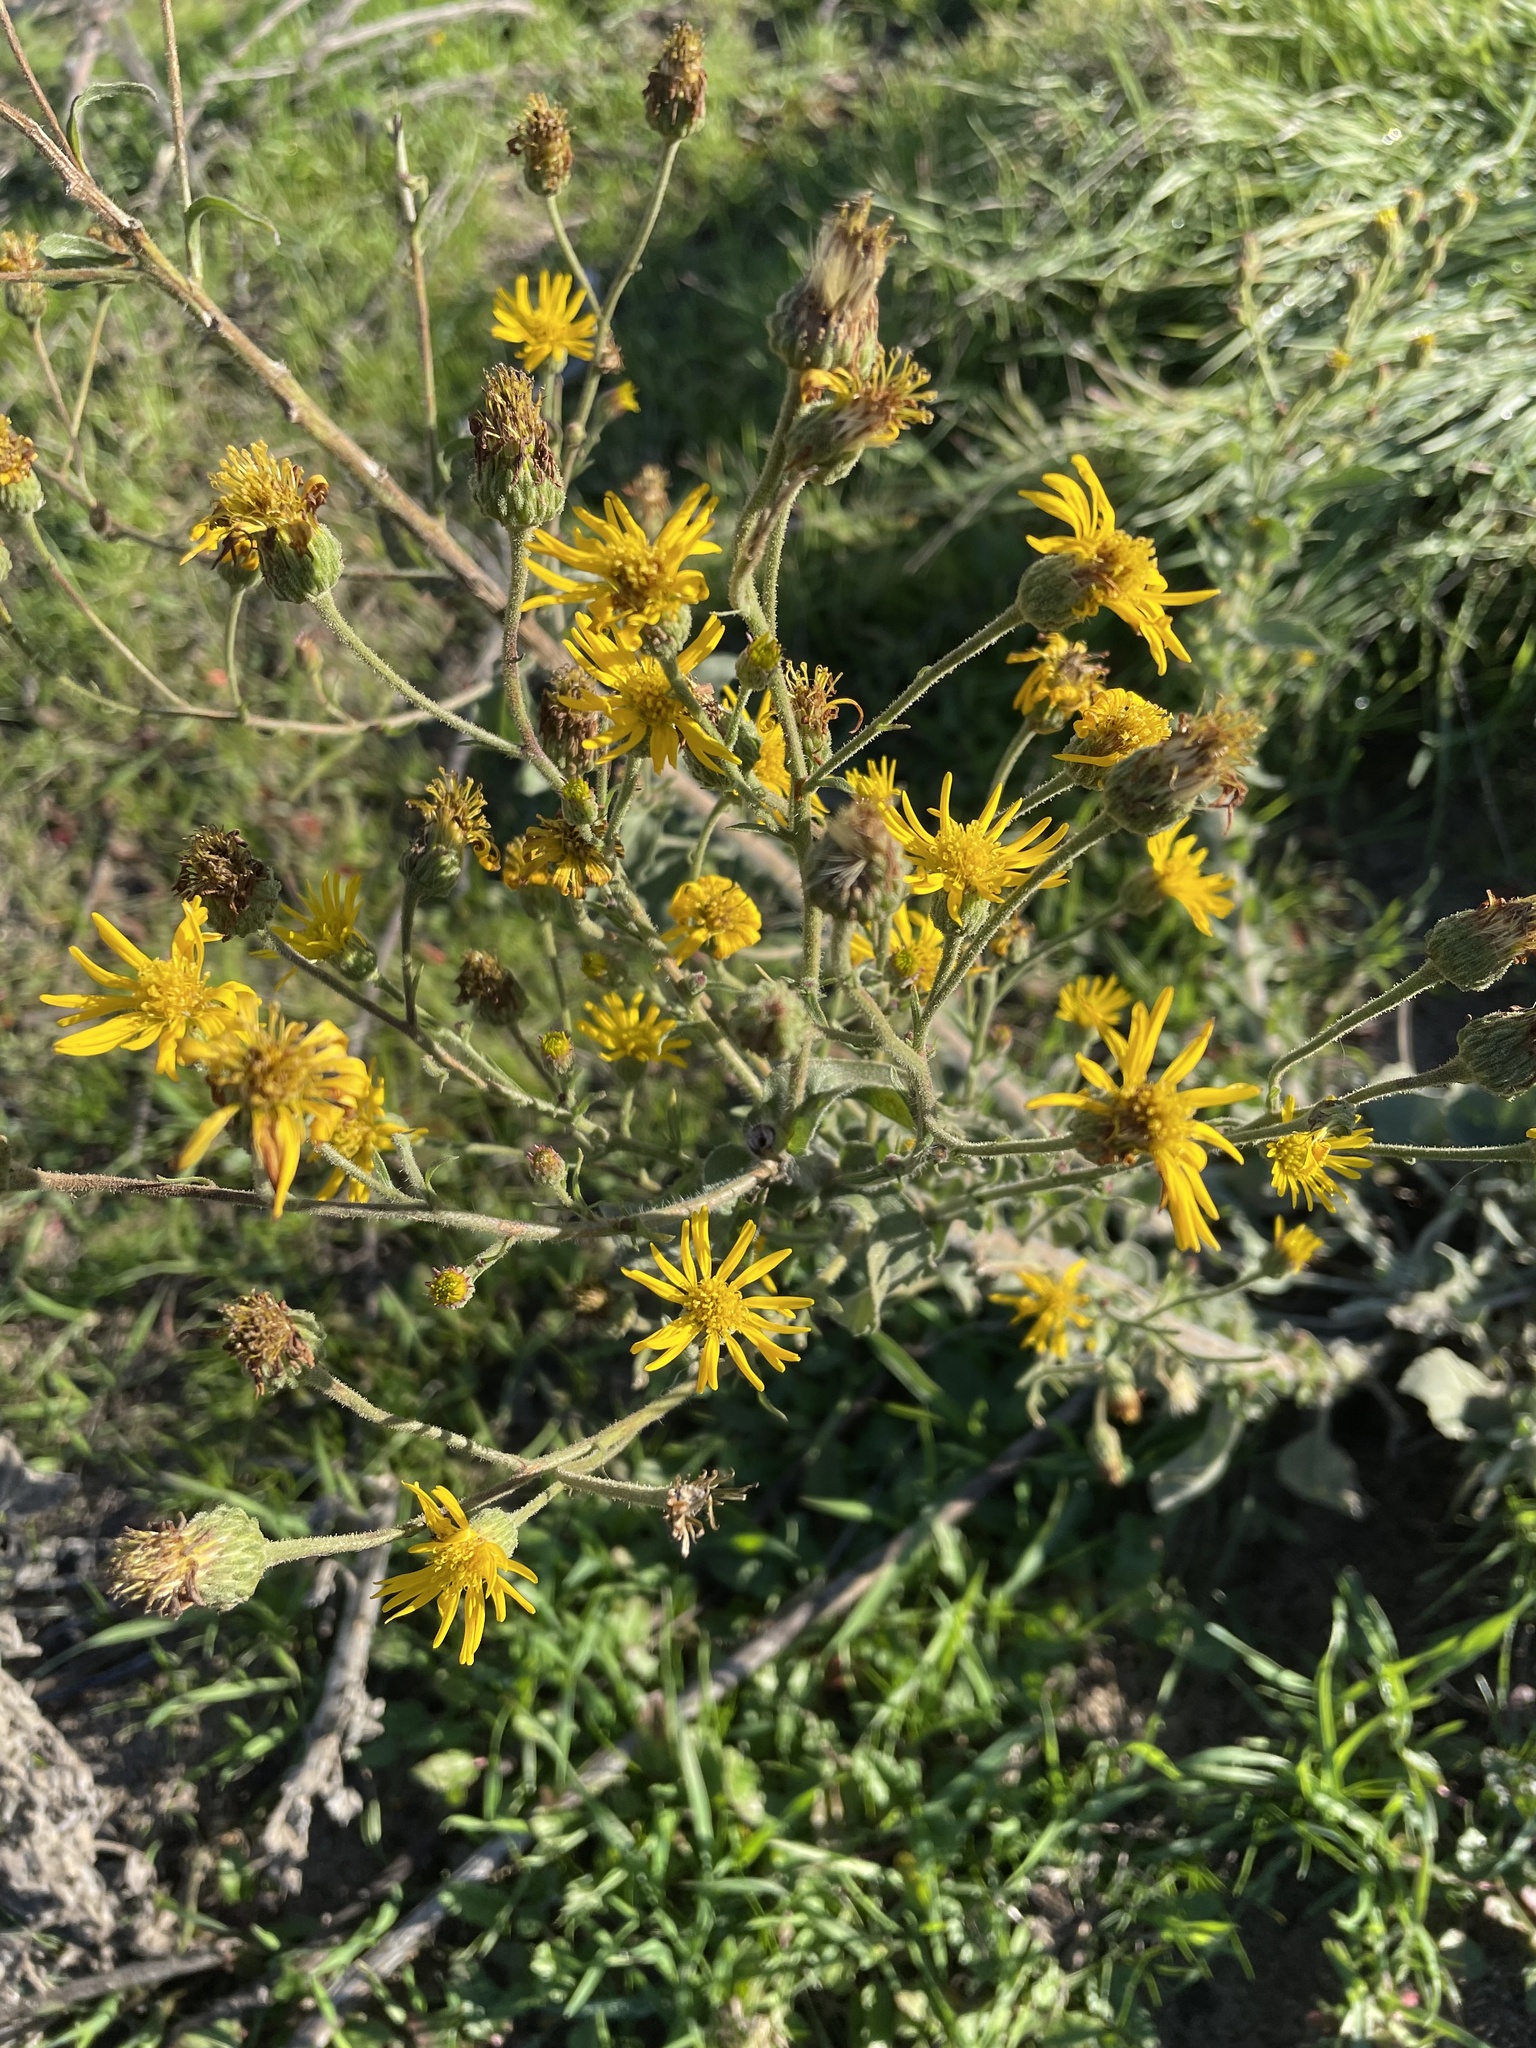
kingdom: Plantae
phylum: Tracheophyta
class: Magnoliopsida
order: Asterales
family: Asteraceae
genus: Heterotheca
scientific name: Heterotheca grandiflora
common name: Telegraphweed
